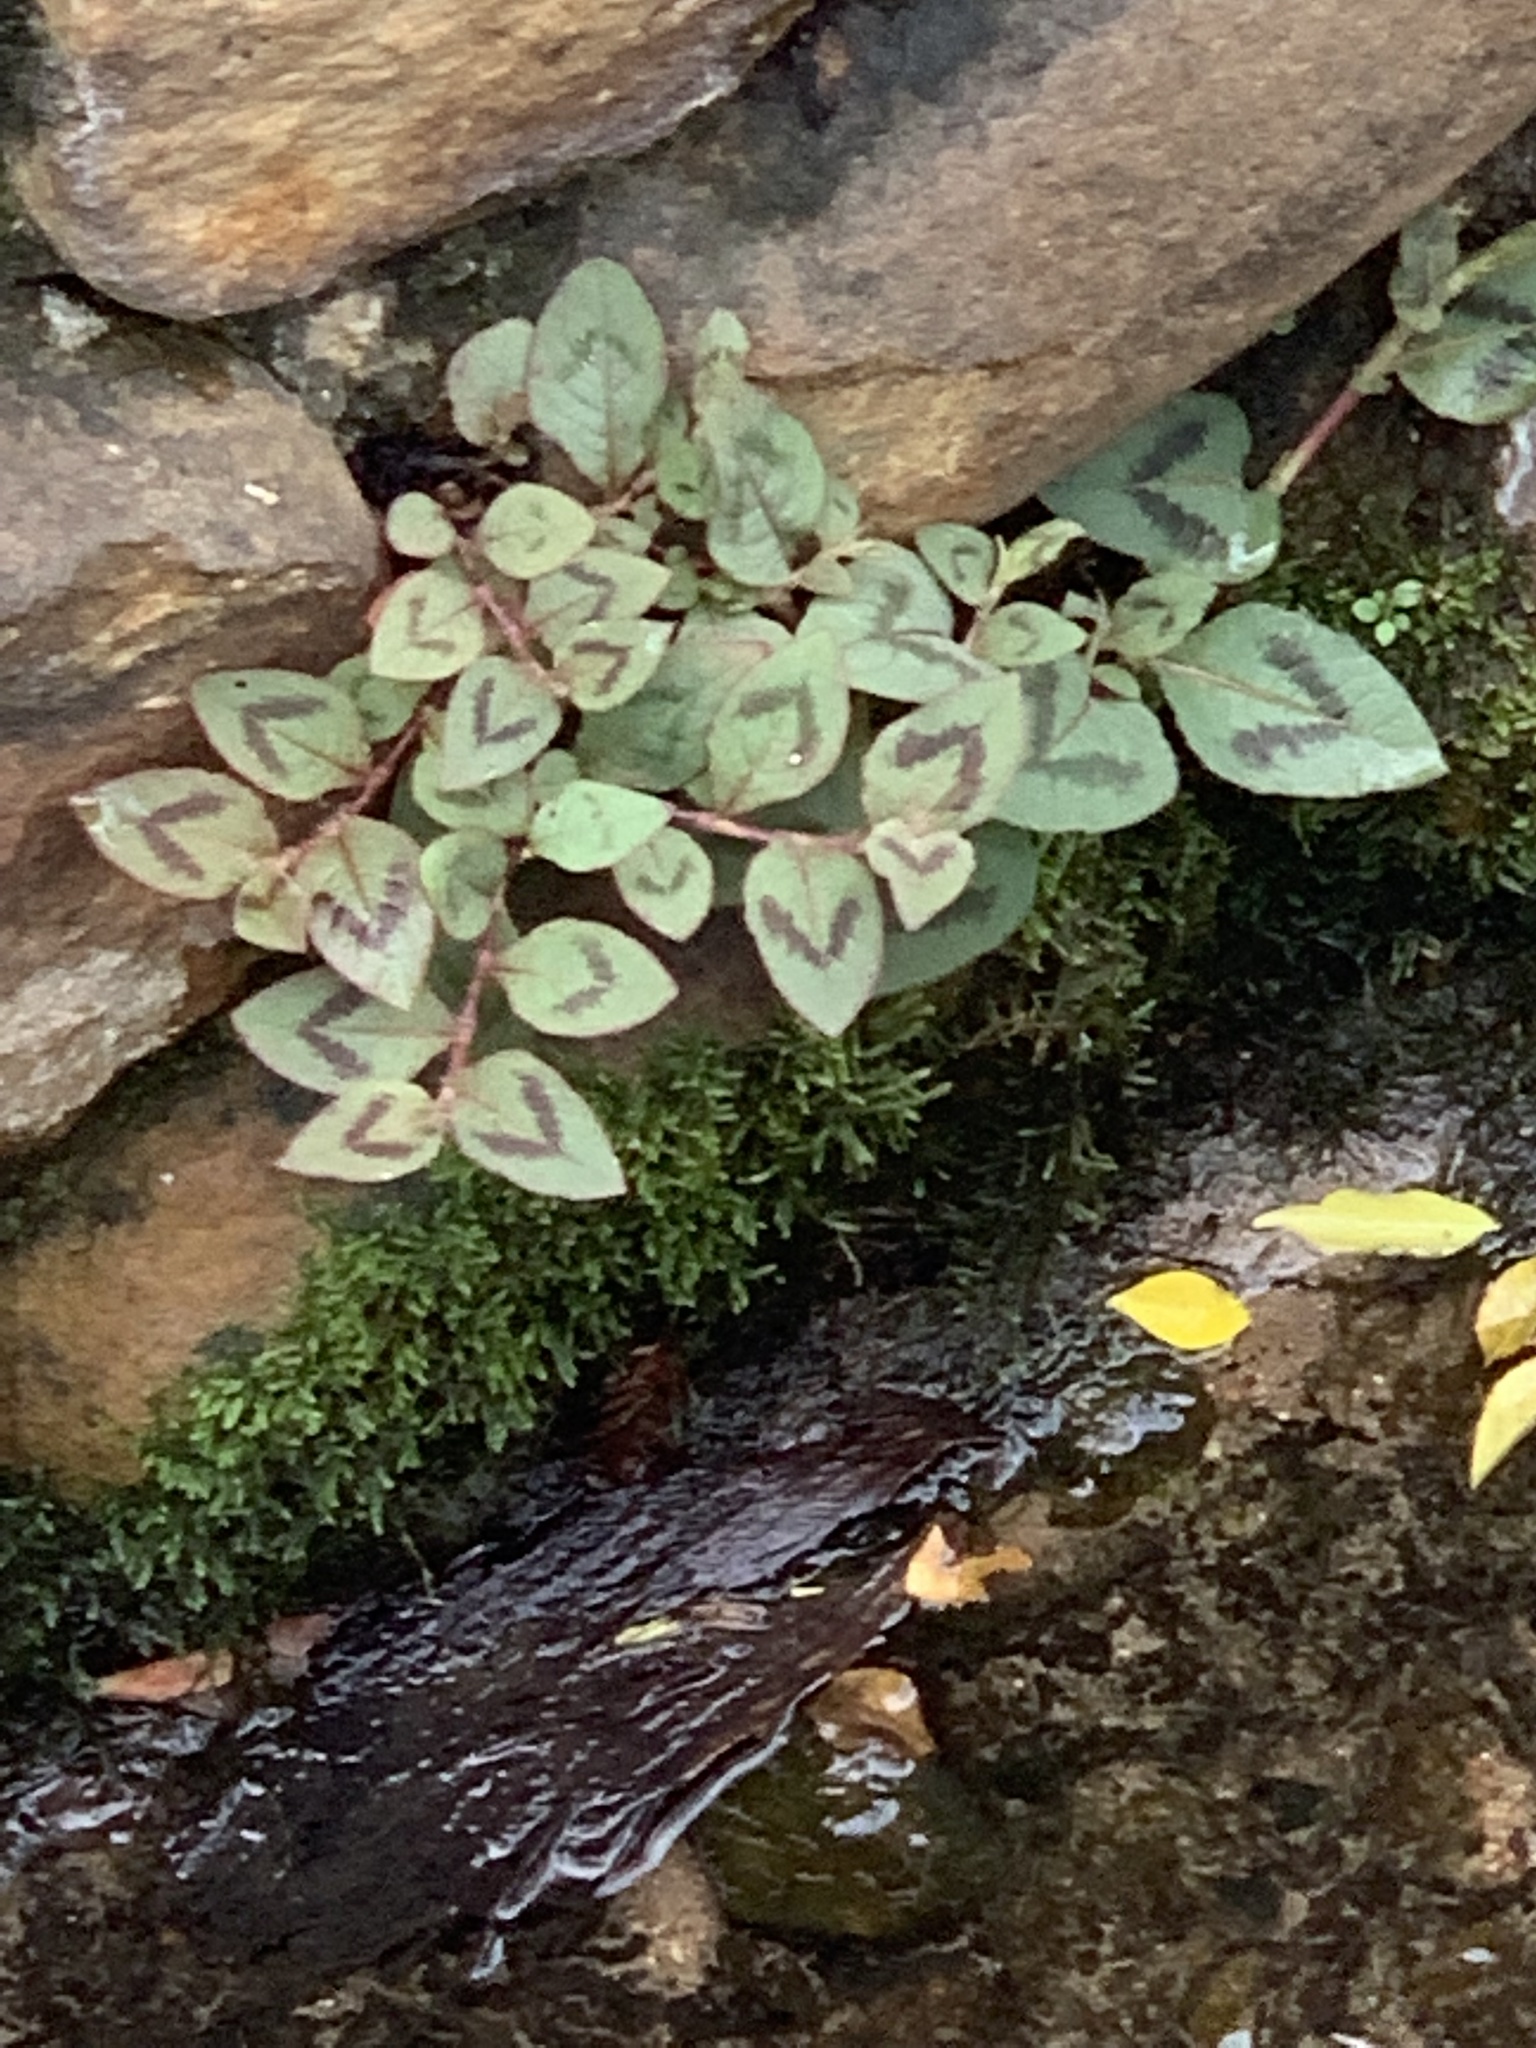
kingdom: Plantae
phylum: Tracheophyta
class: Magnoliopsida
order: Caryophyllales
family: Polygonaceae
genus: Persicaria
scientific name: Persicaria capitata
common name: Pinkhead smartweed
